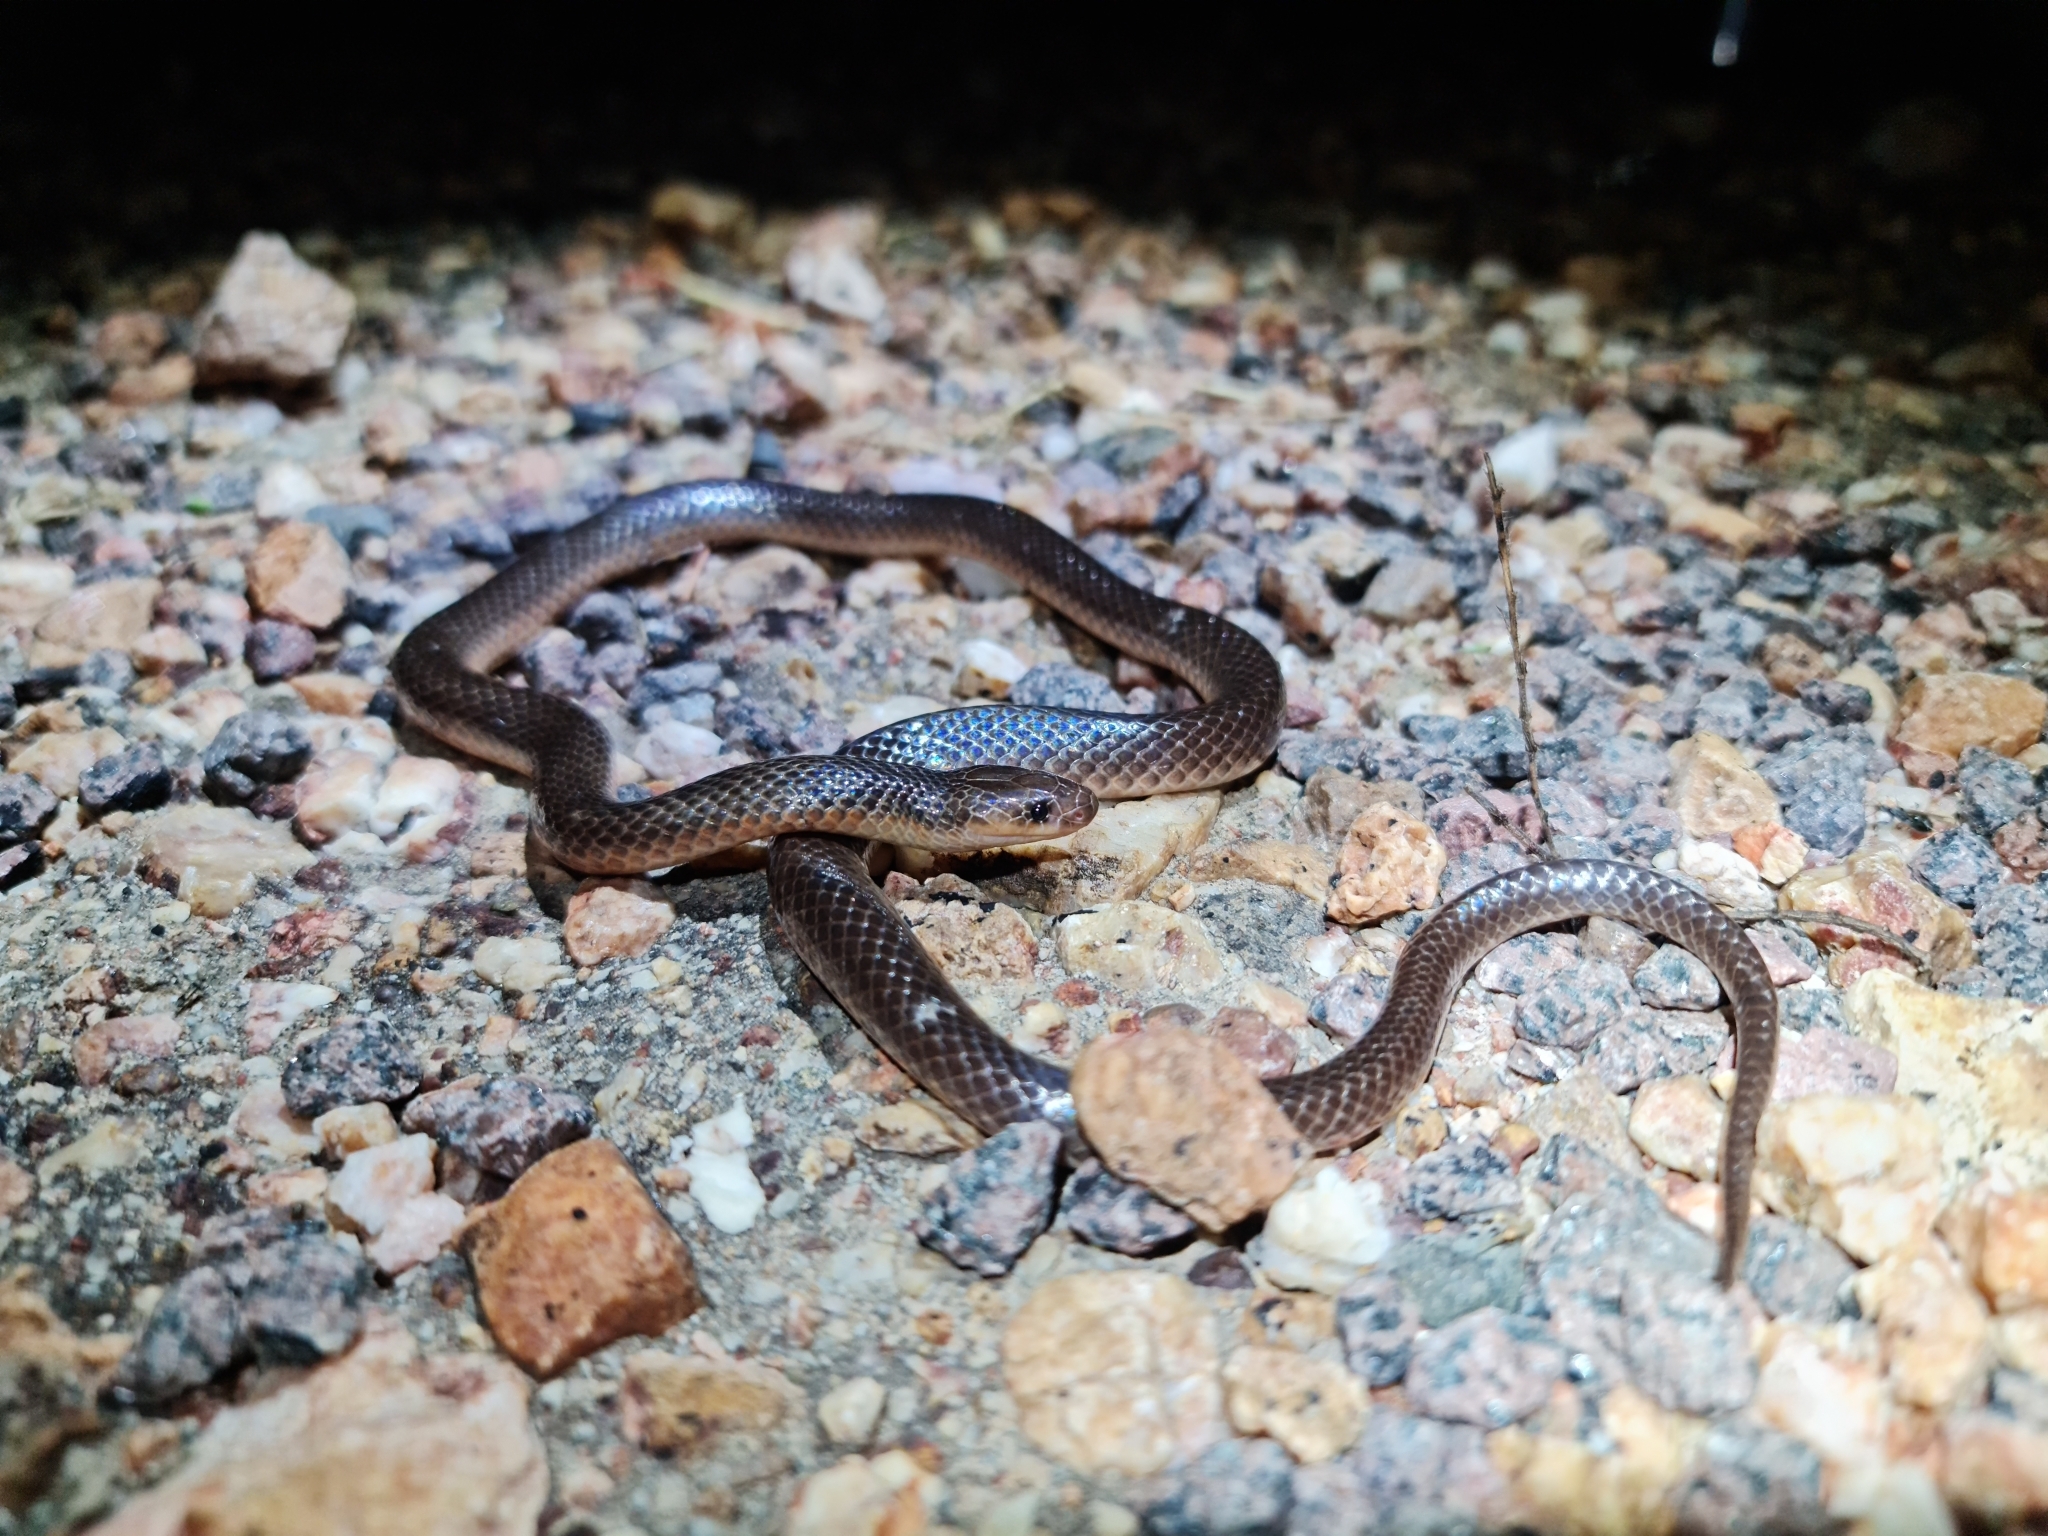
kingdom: Animalia
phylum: Chordata
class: Squamata
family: Elapidae
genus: Cryptophis
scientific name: Cryptophis pallidiceps
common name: Northern small-eyed snake
